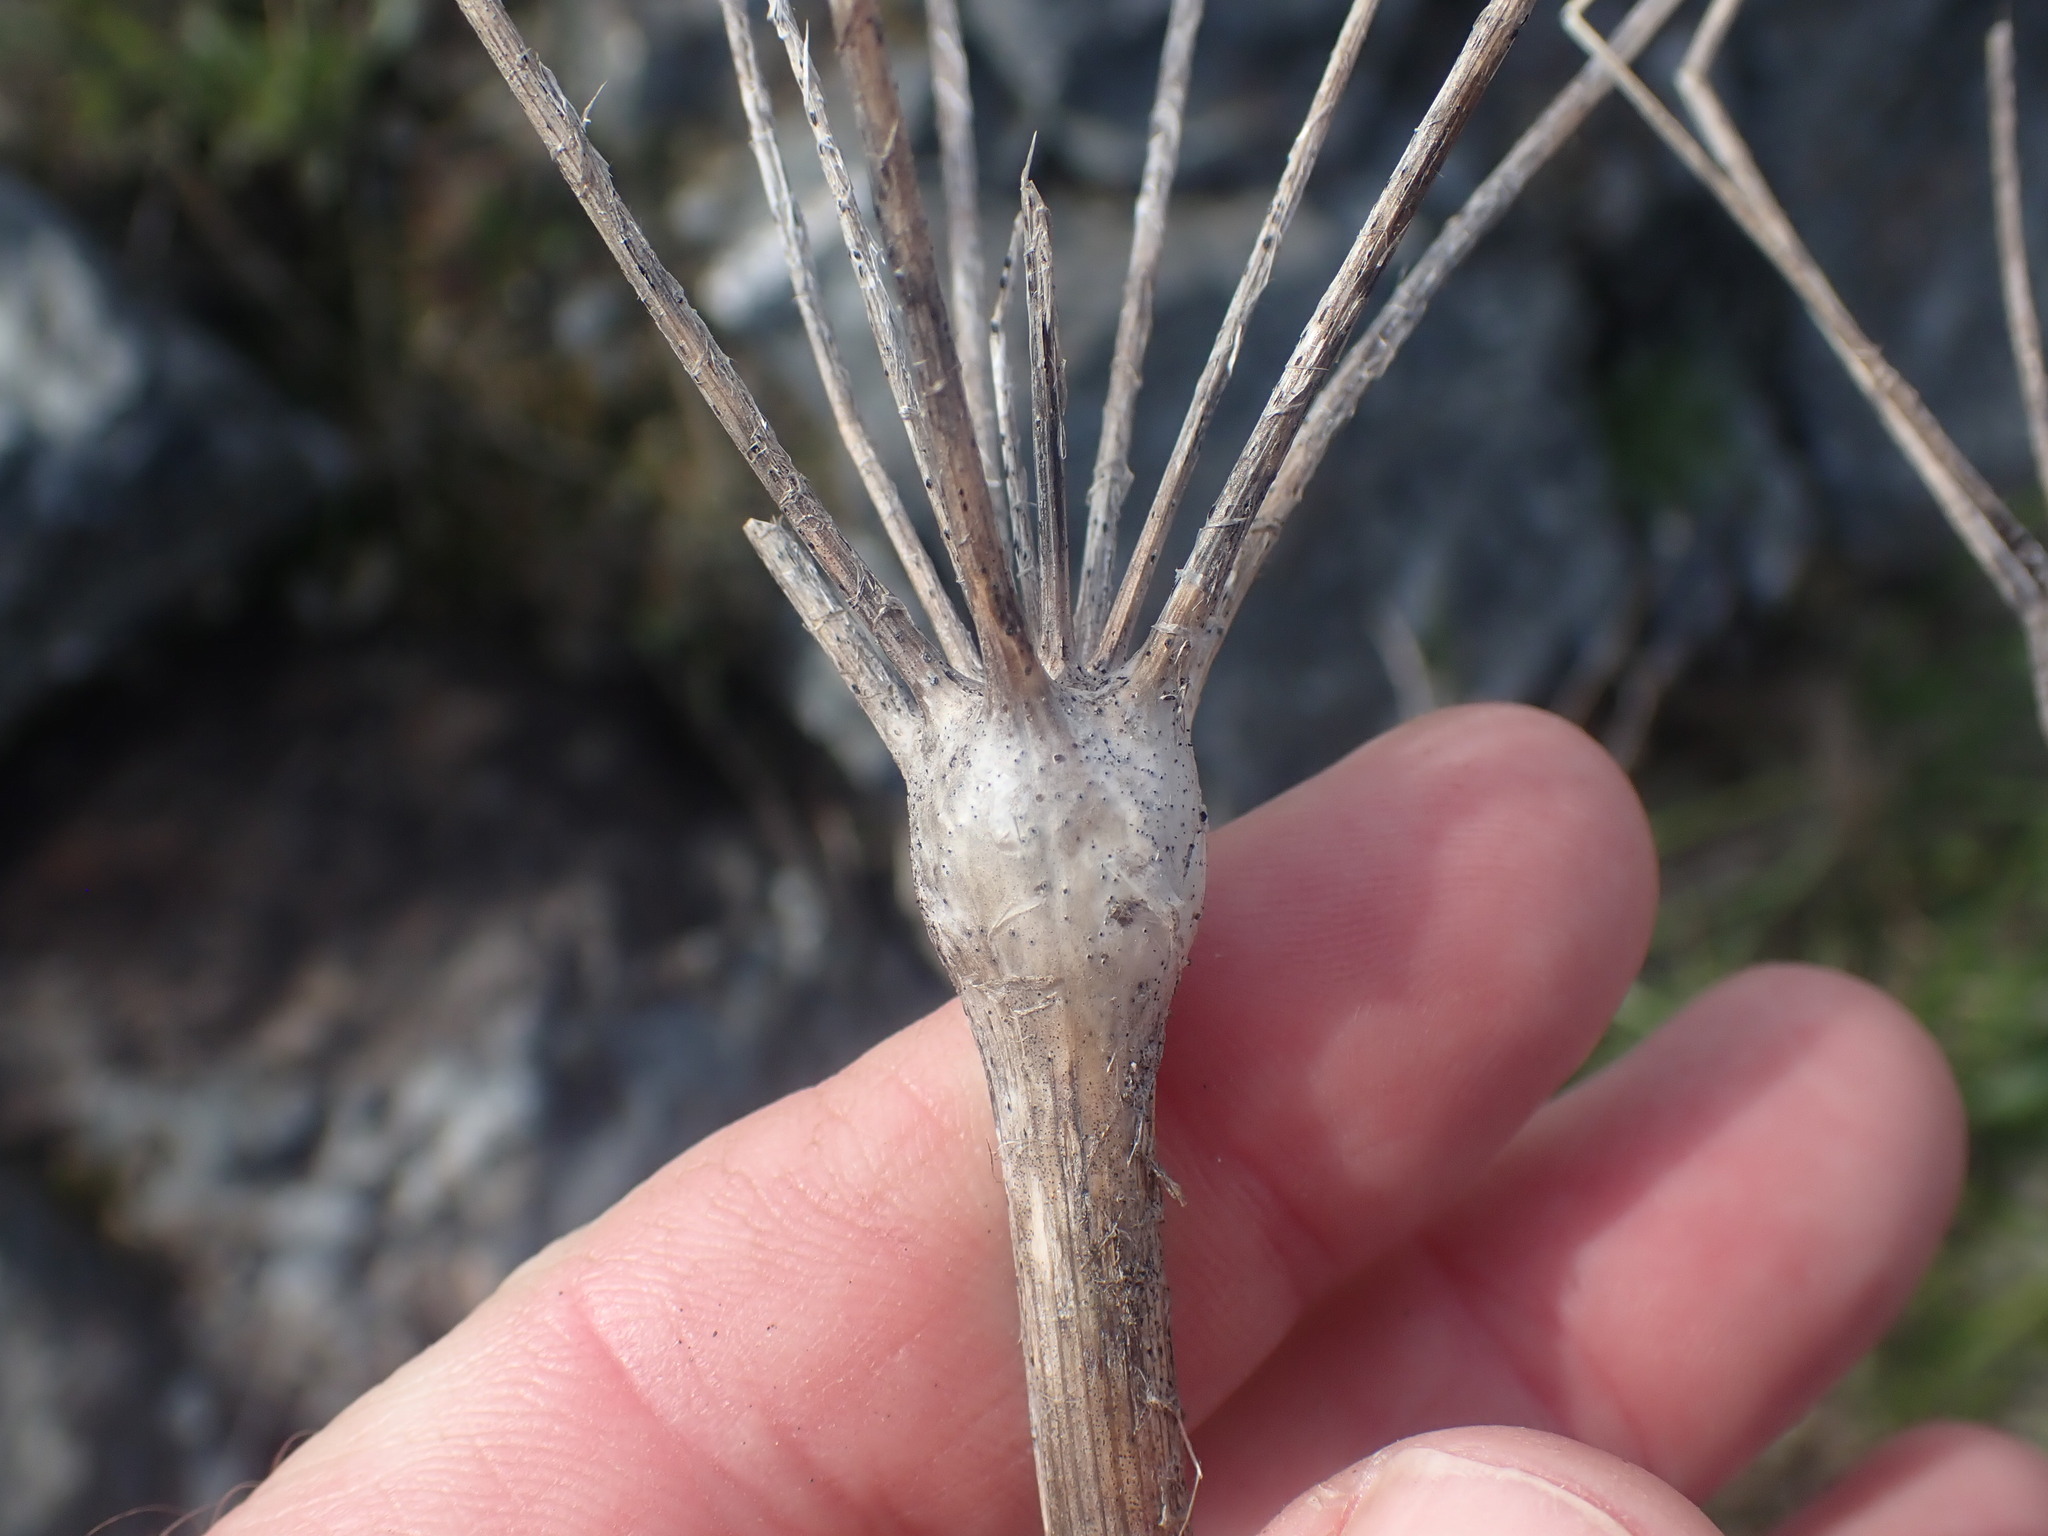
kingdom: Plantae
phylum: Tracheophyta
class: Magnoliopsida
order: Apiales
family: Apiaceae
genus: Lomatium
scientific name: Lomatium nudicaule
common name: Pestle lomatium
